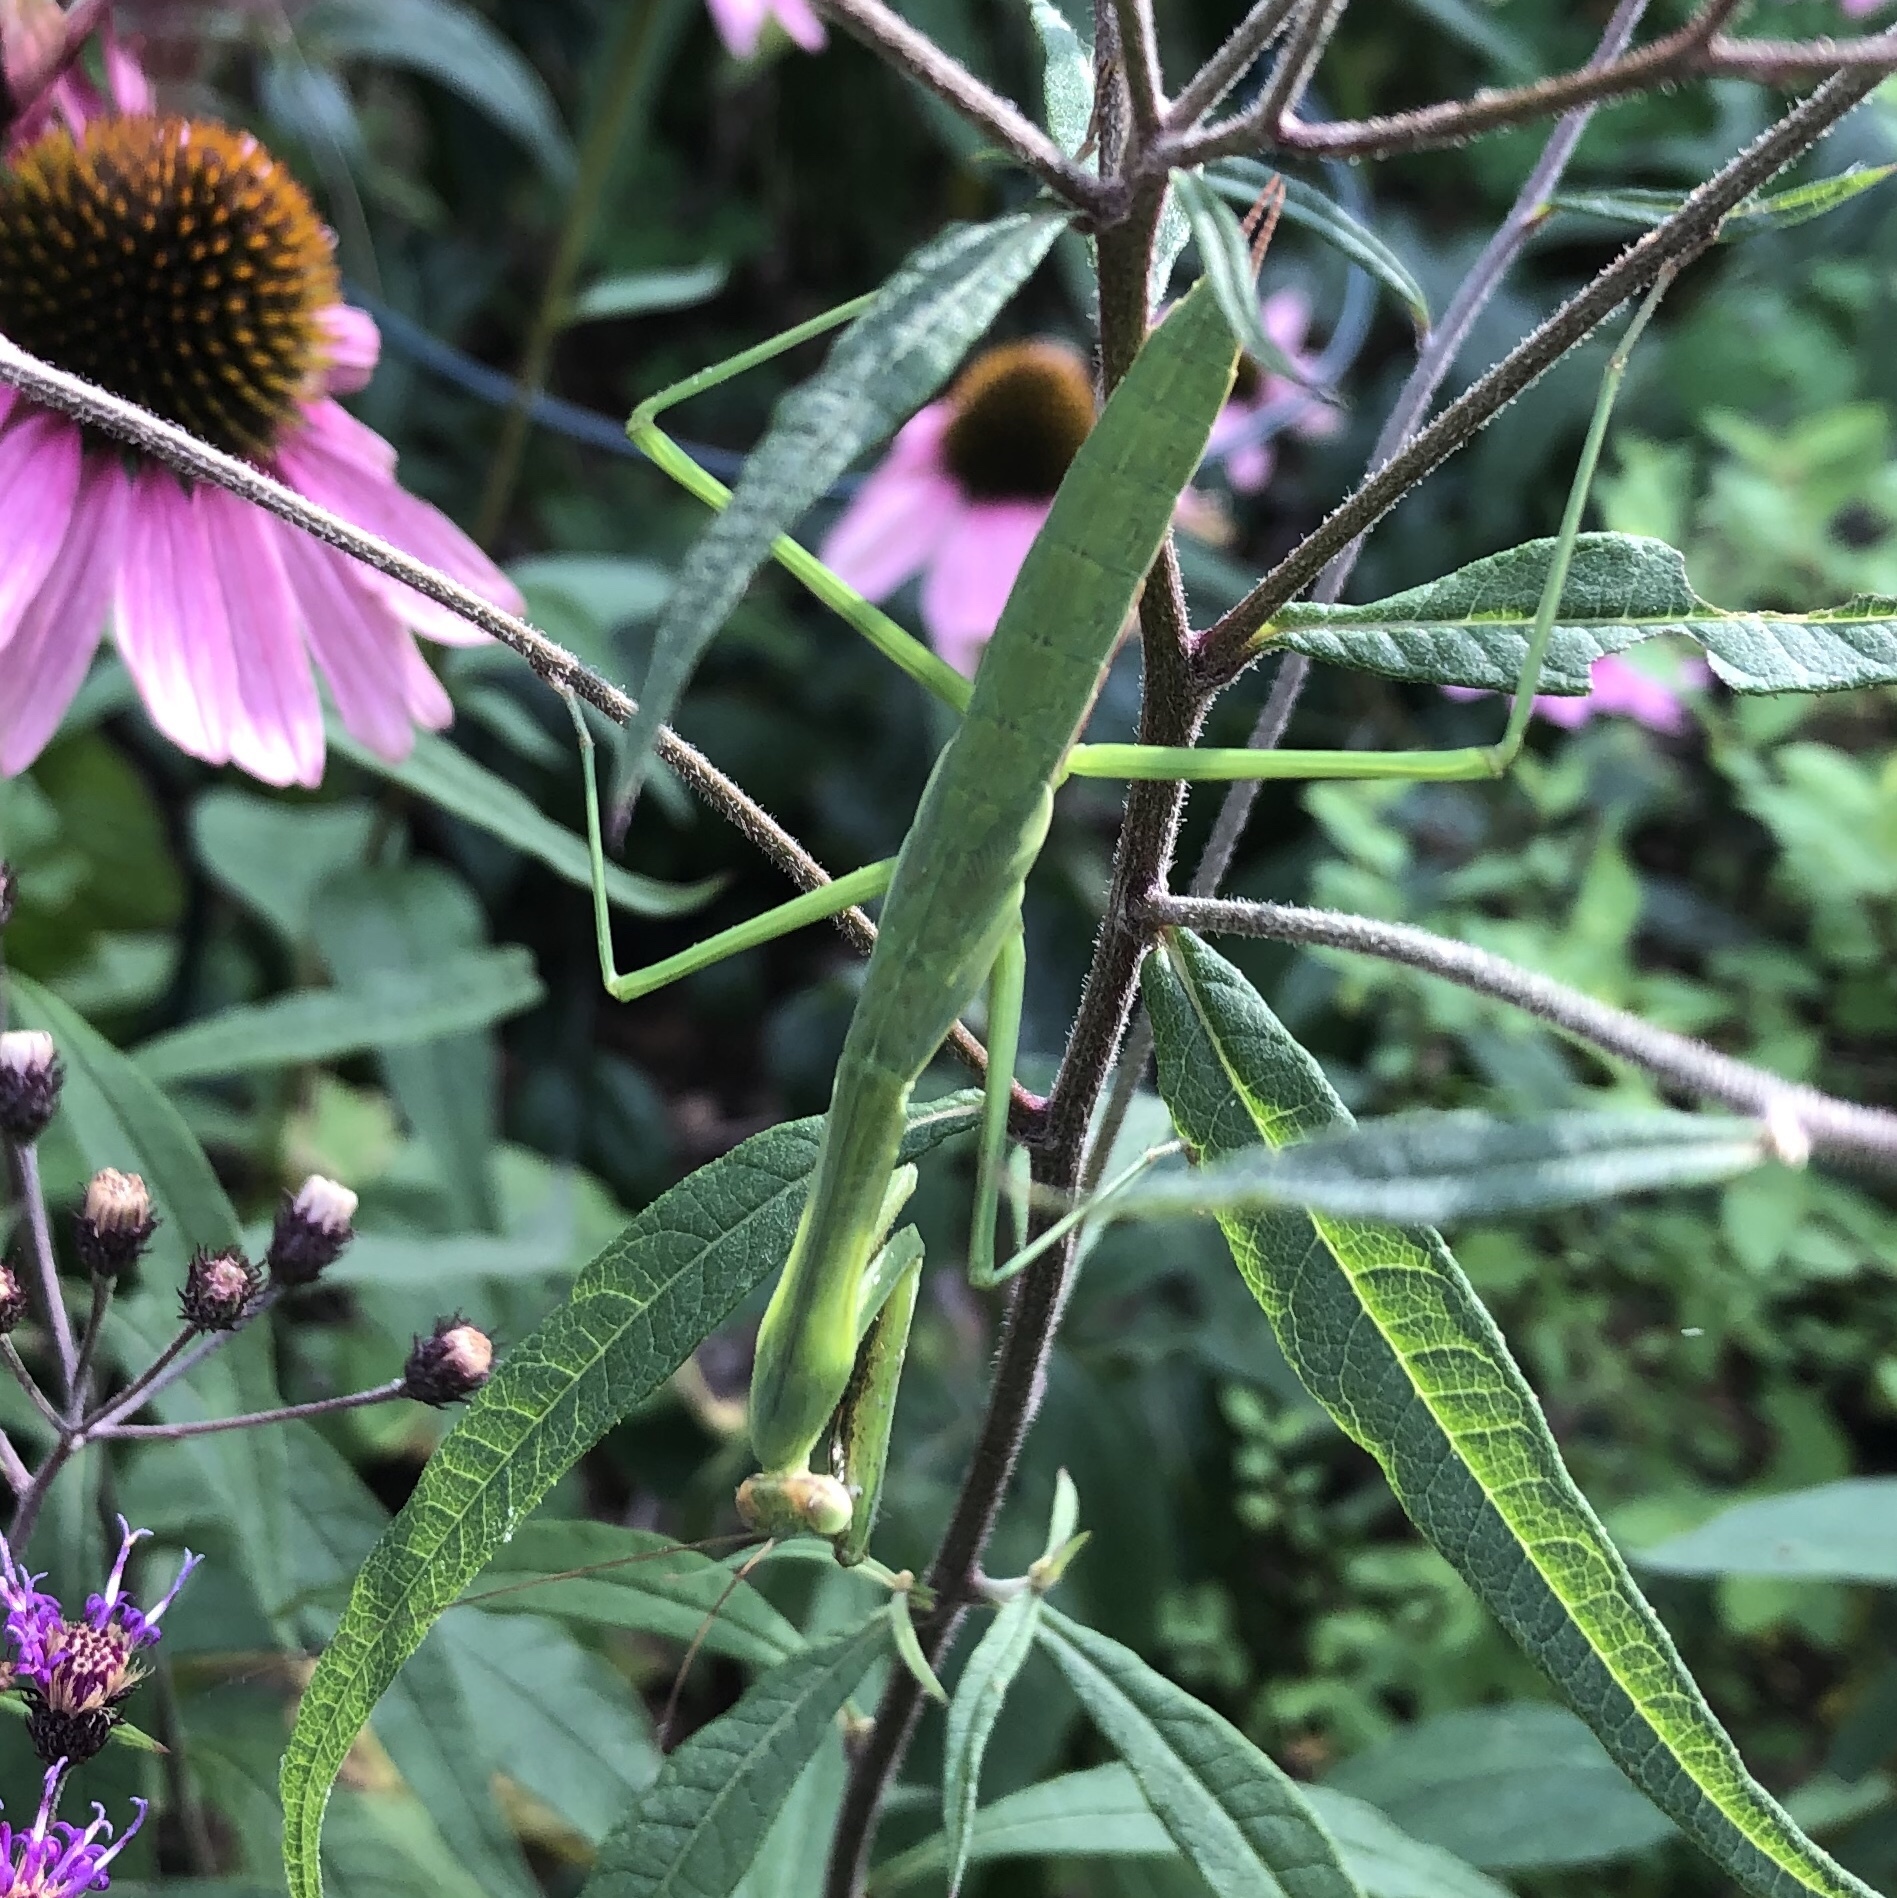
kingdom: Animalia
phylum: Arthropoda
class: Insecta
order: Mantodea
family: Mantidae
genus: Tenodera
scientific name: Tenodera sinensis
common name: Chinese mantis
